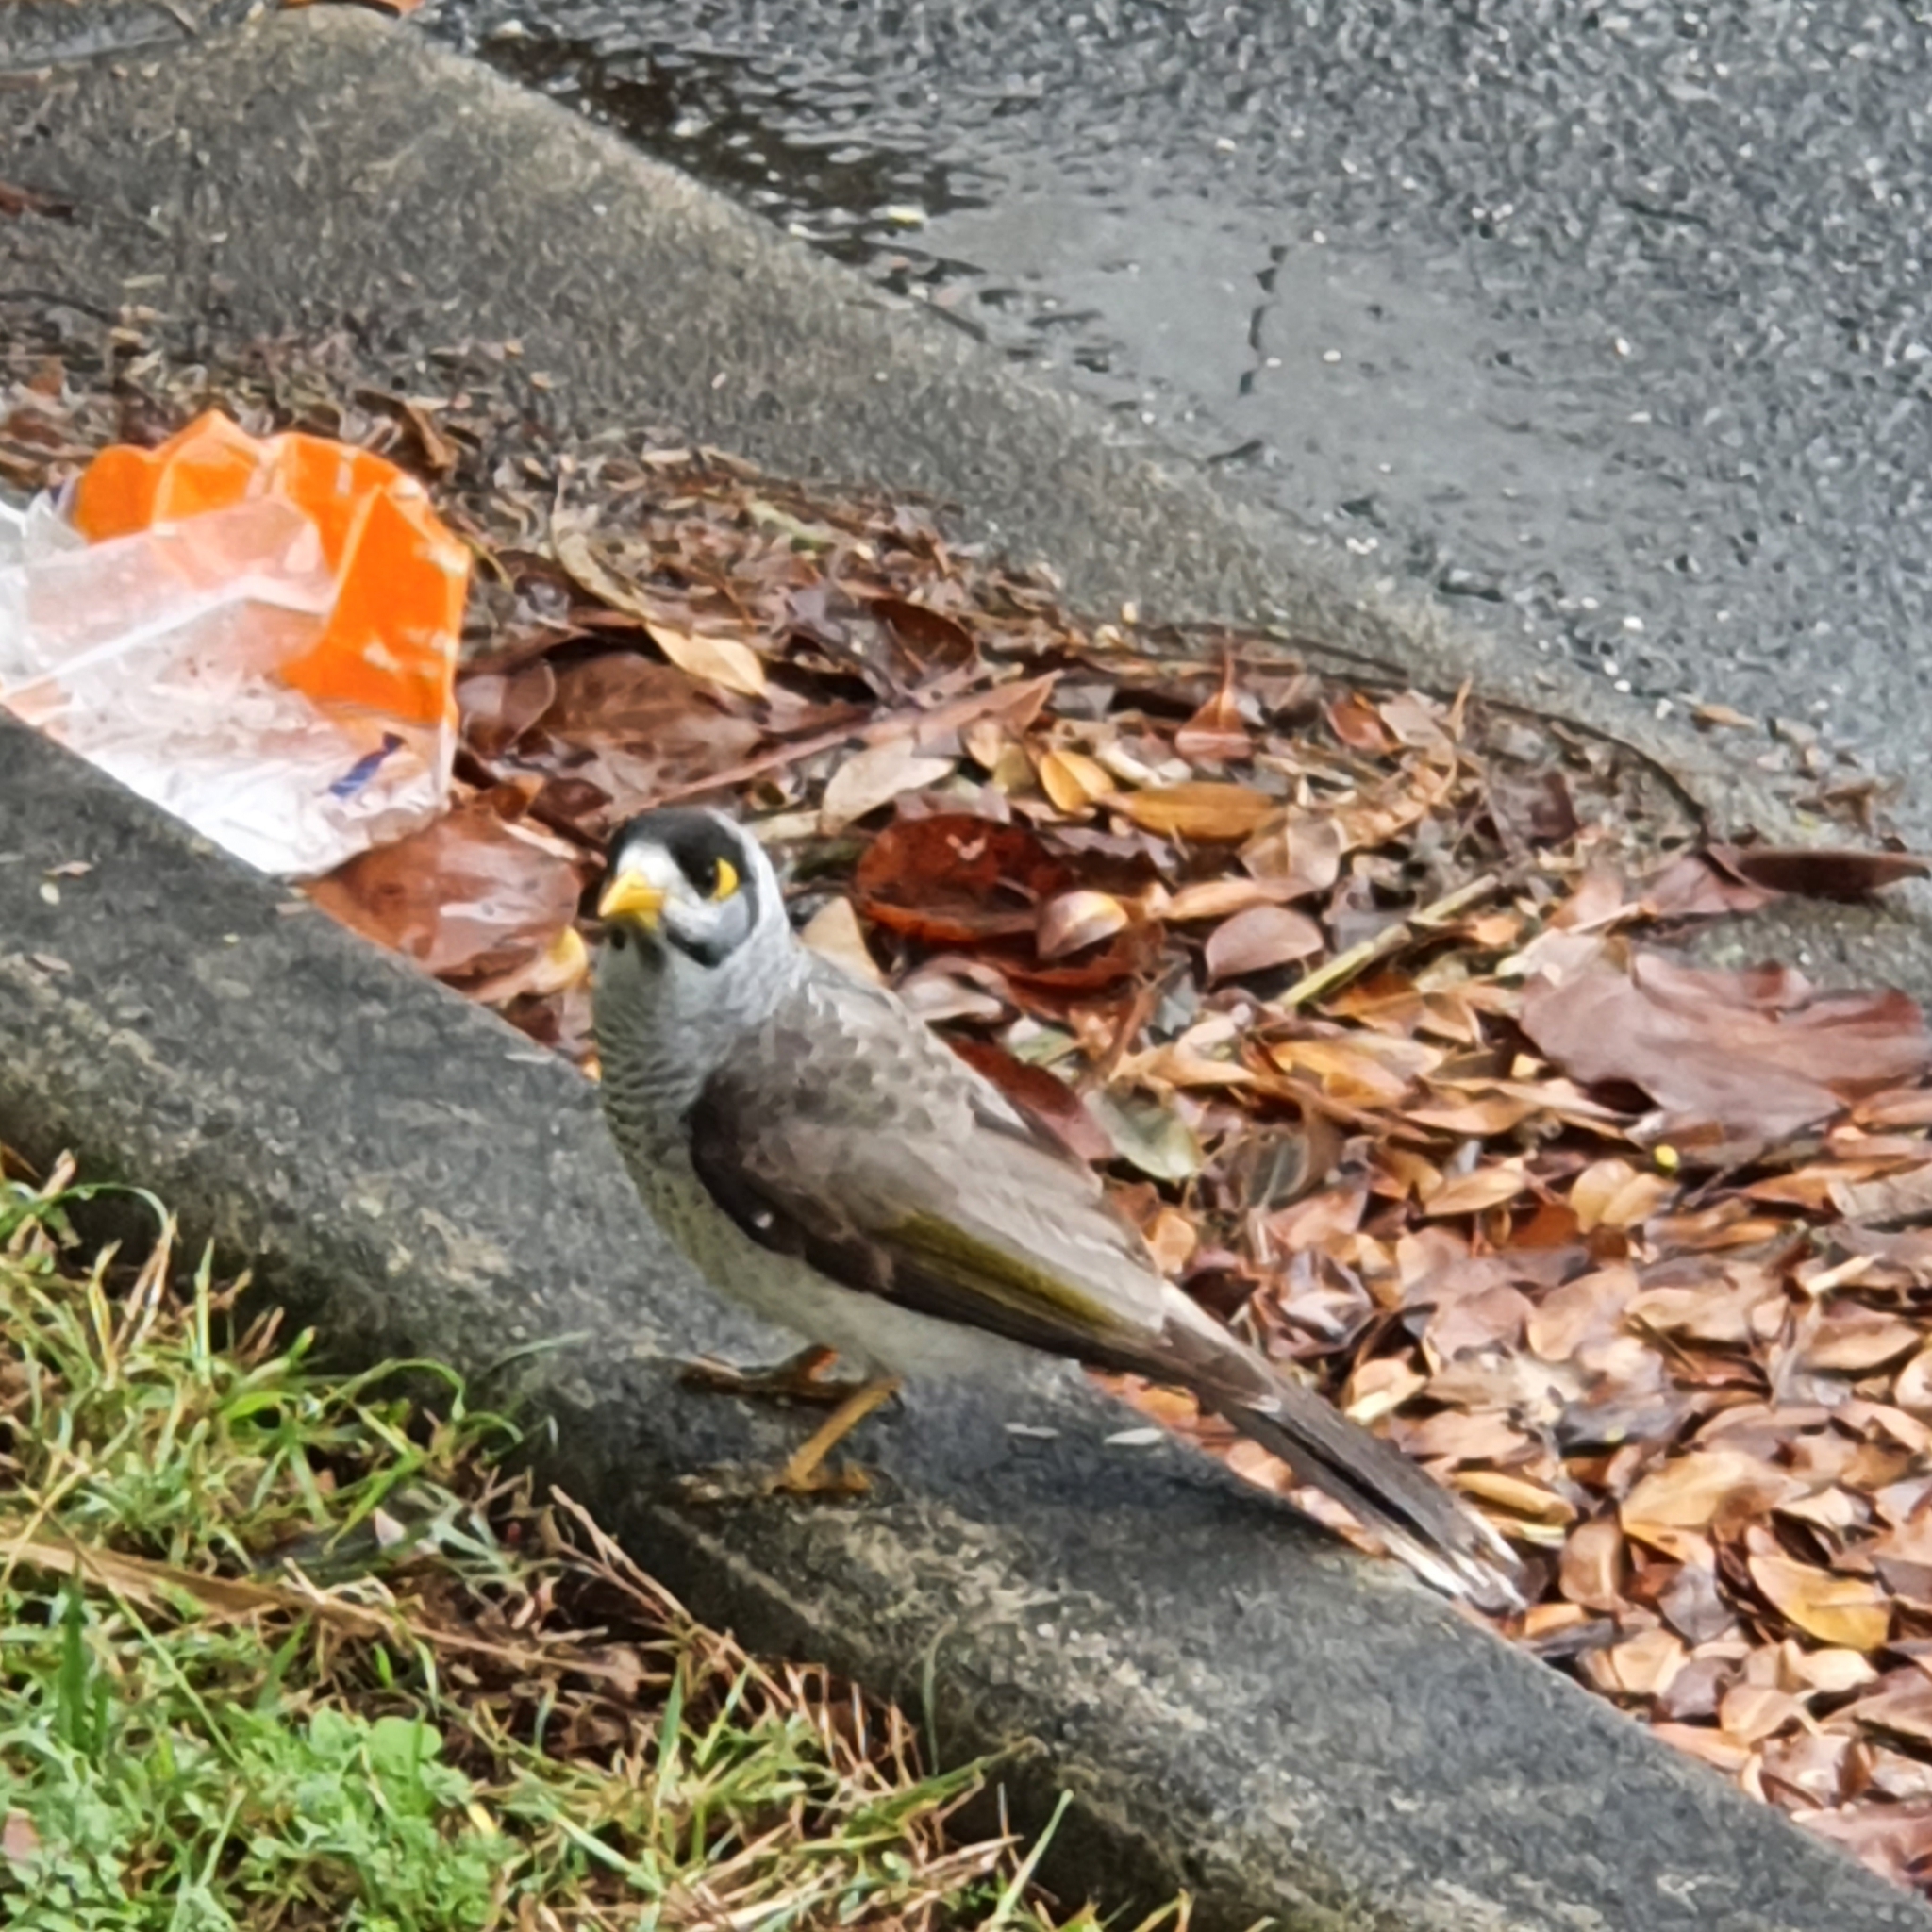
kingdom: Animalia
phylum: Chordata
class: Aves
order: Passeriformes
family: Meliphagidae
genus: Manorina
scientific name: Manorina melanocephala
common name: Noisy miner
